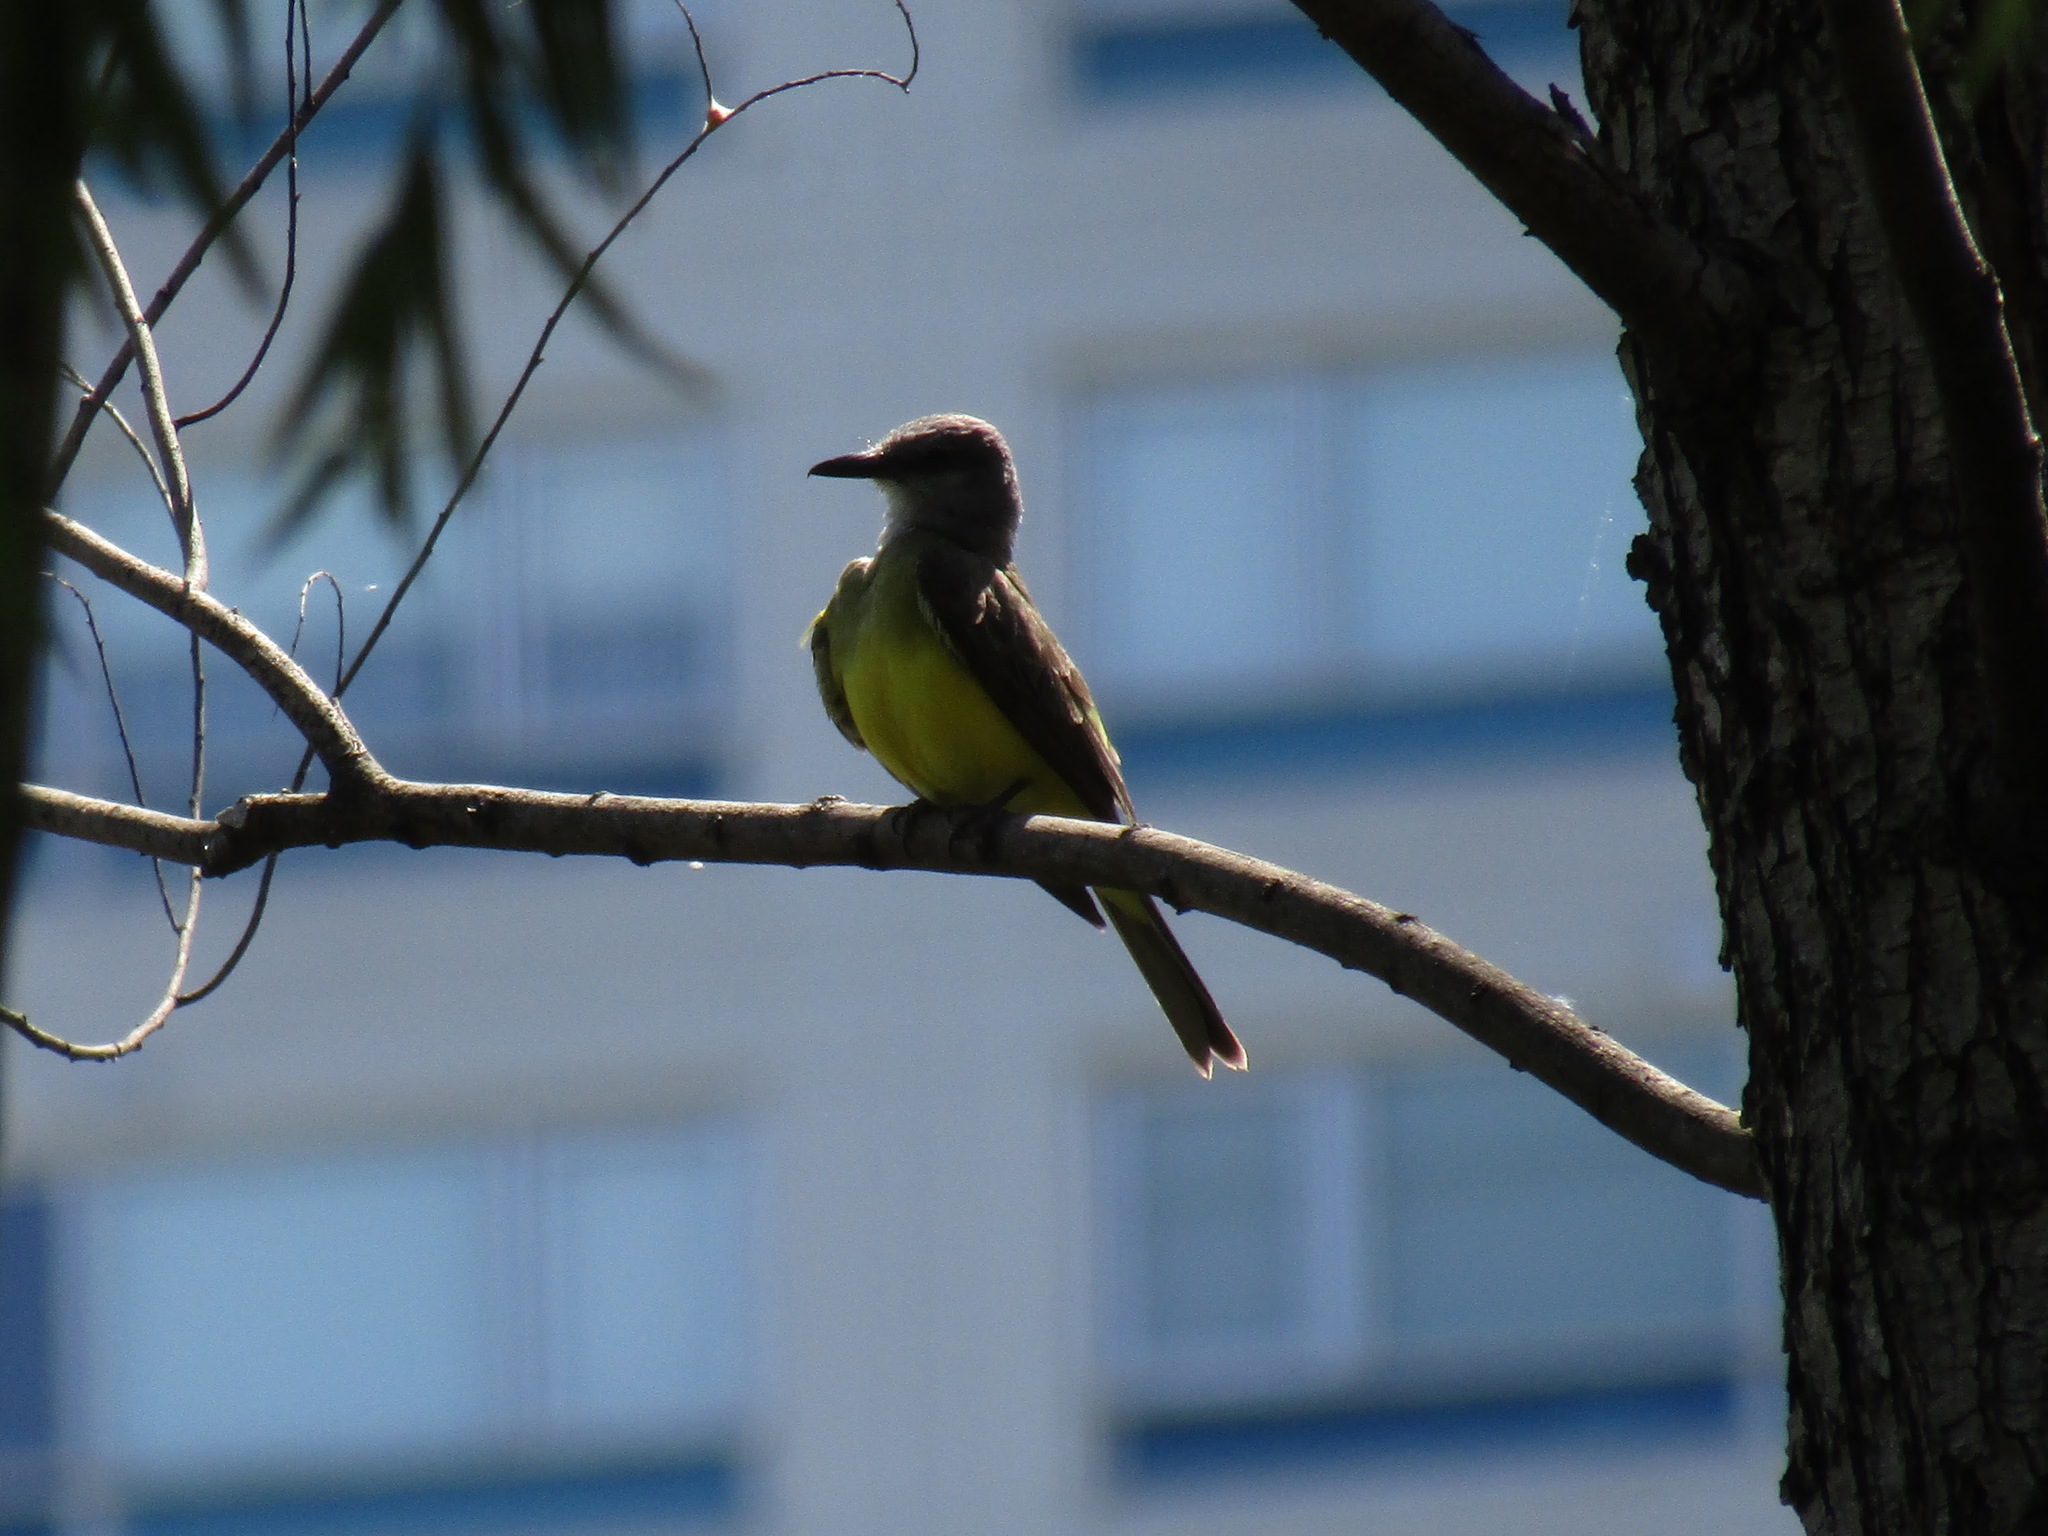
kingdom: Animalia
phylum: Chordata
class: Aves
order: Passeriformes
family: Tyrannidae
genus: Tyrannus
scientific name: Tyrannus melancholicus
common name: Tropical kingbird
